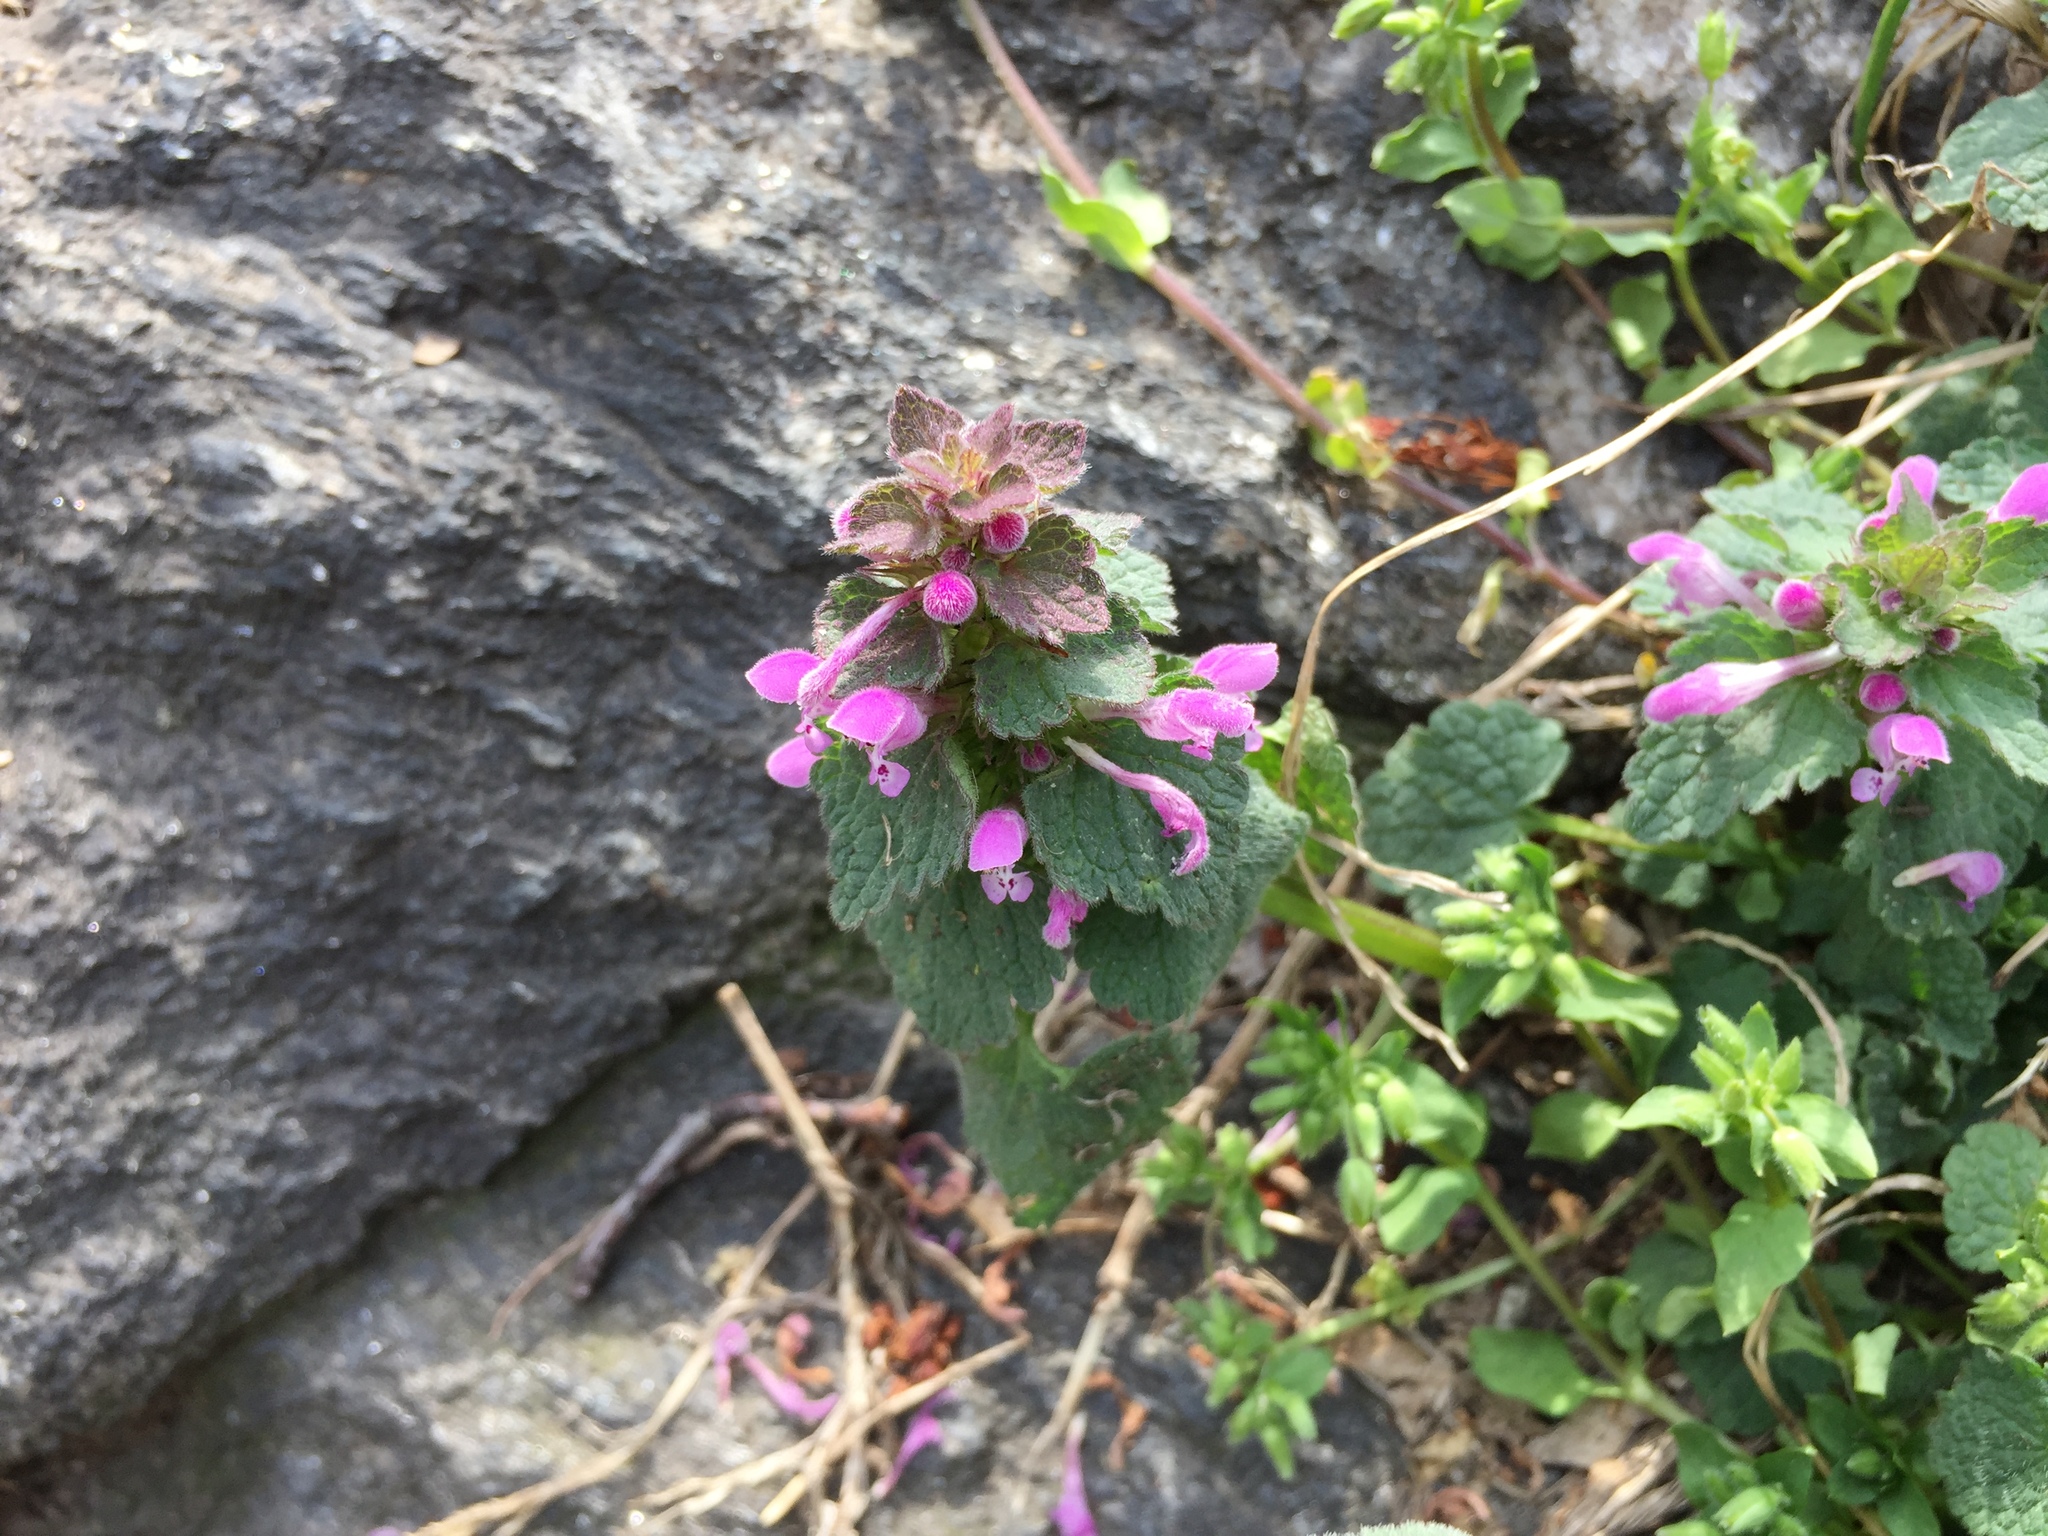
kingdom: Plantae
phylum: Tracheophyta
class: Magnoliopsida
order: Lamiales
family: Lamiaceae
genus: Lamium
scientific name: Lamium purpureum
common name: Red dead-nettle
